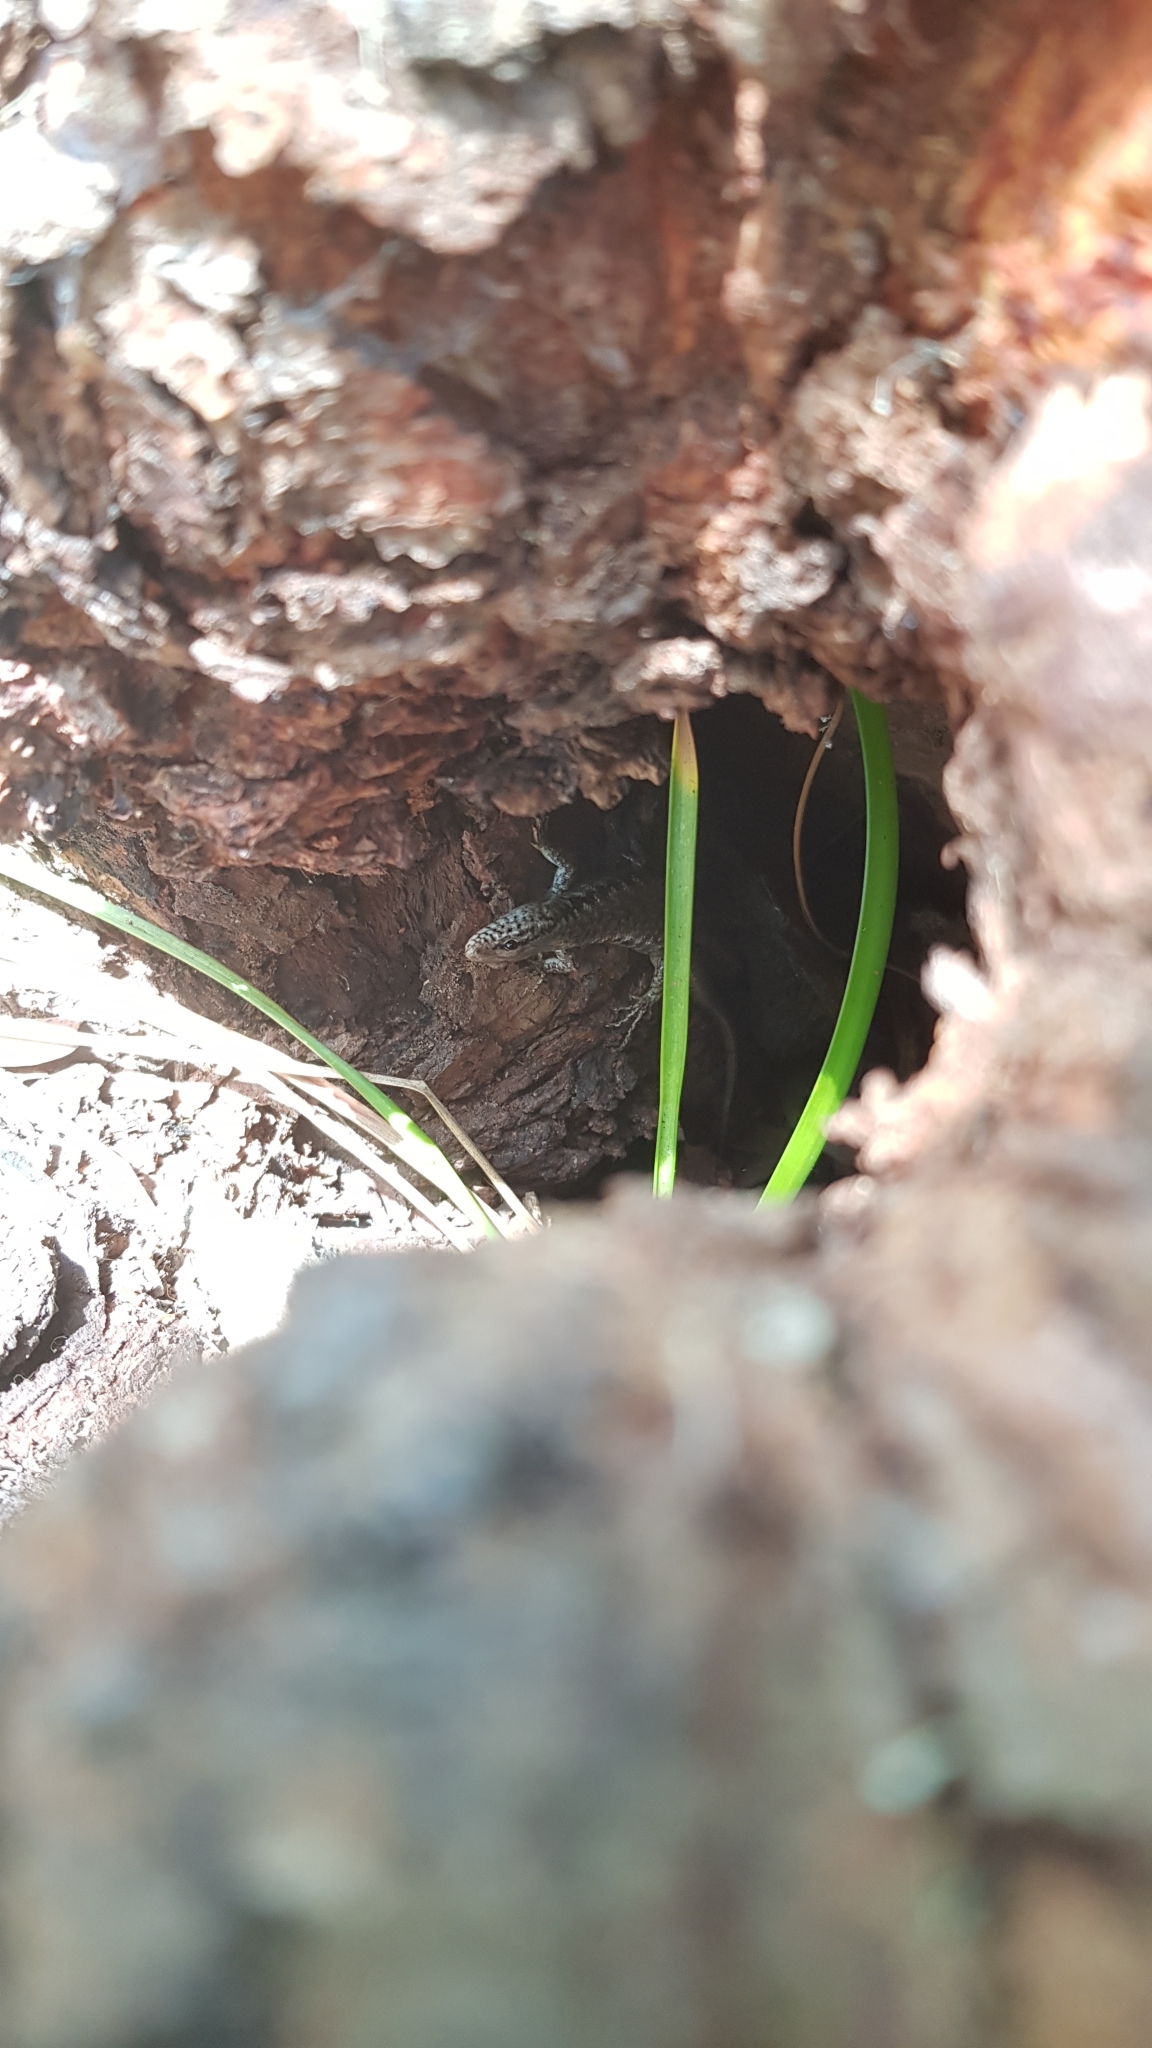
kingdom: Animalia
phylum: Chordata
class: Squamata
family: Scincidae
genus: Concinnia
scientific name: Concinnia tenuis
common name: Bar-sided forest-skink
